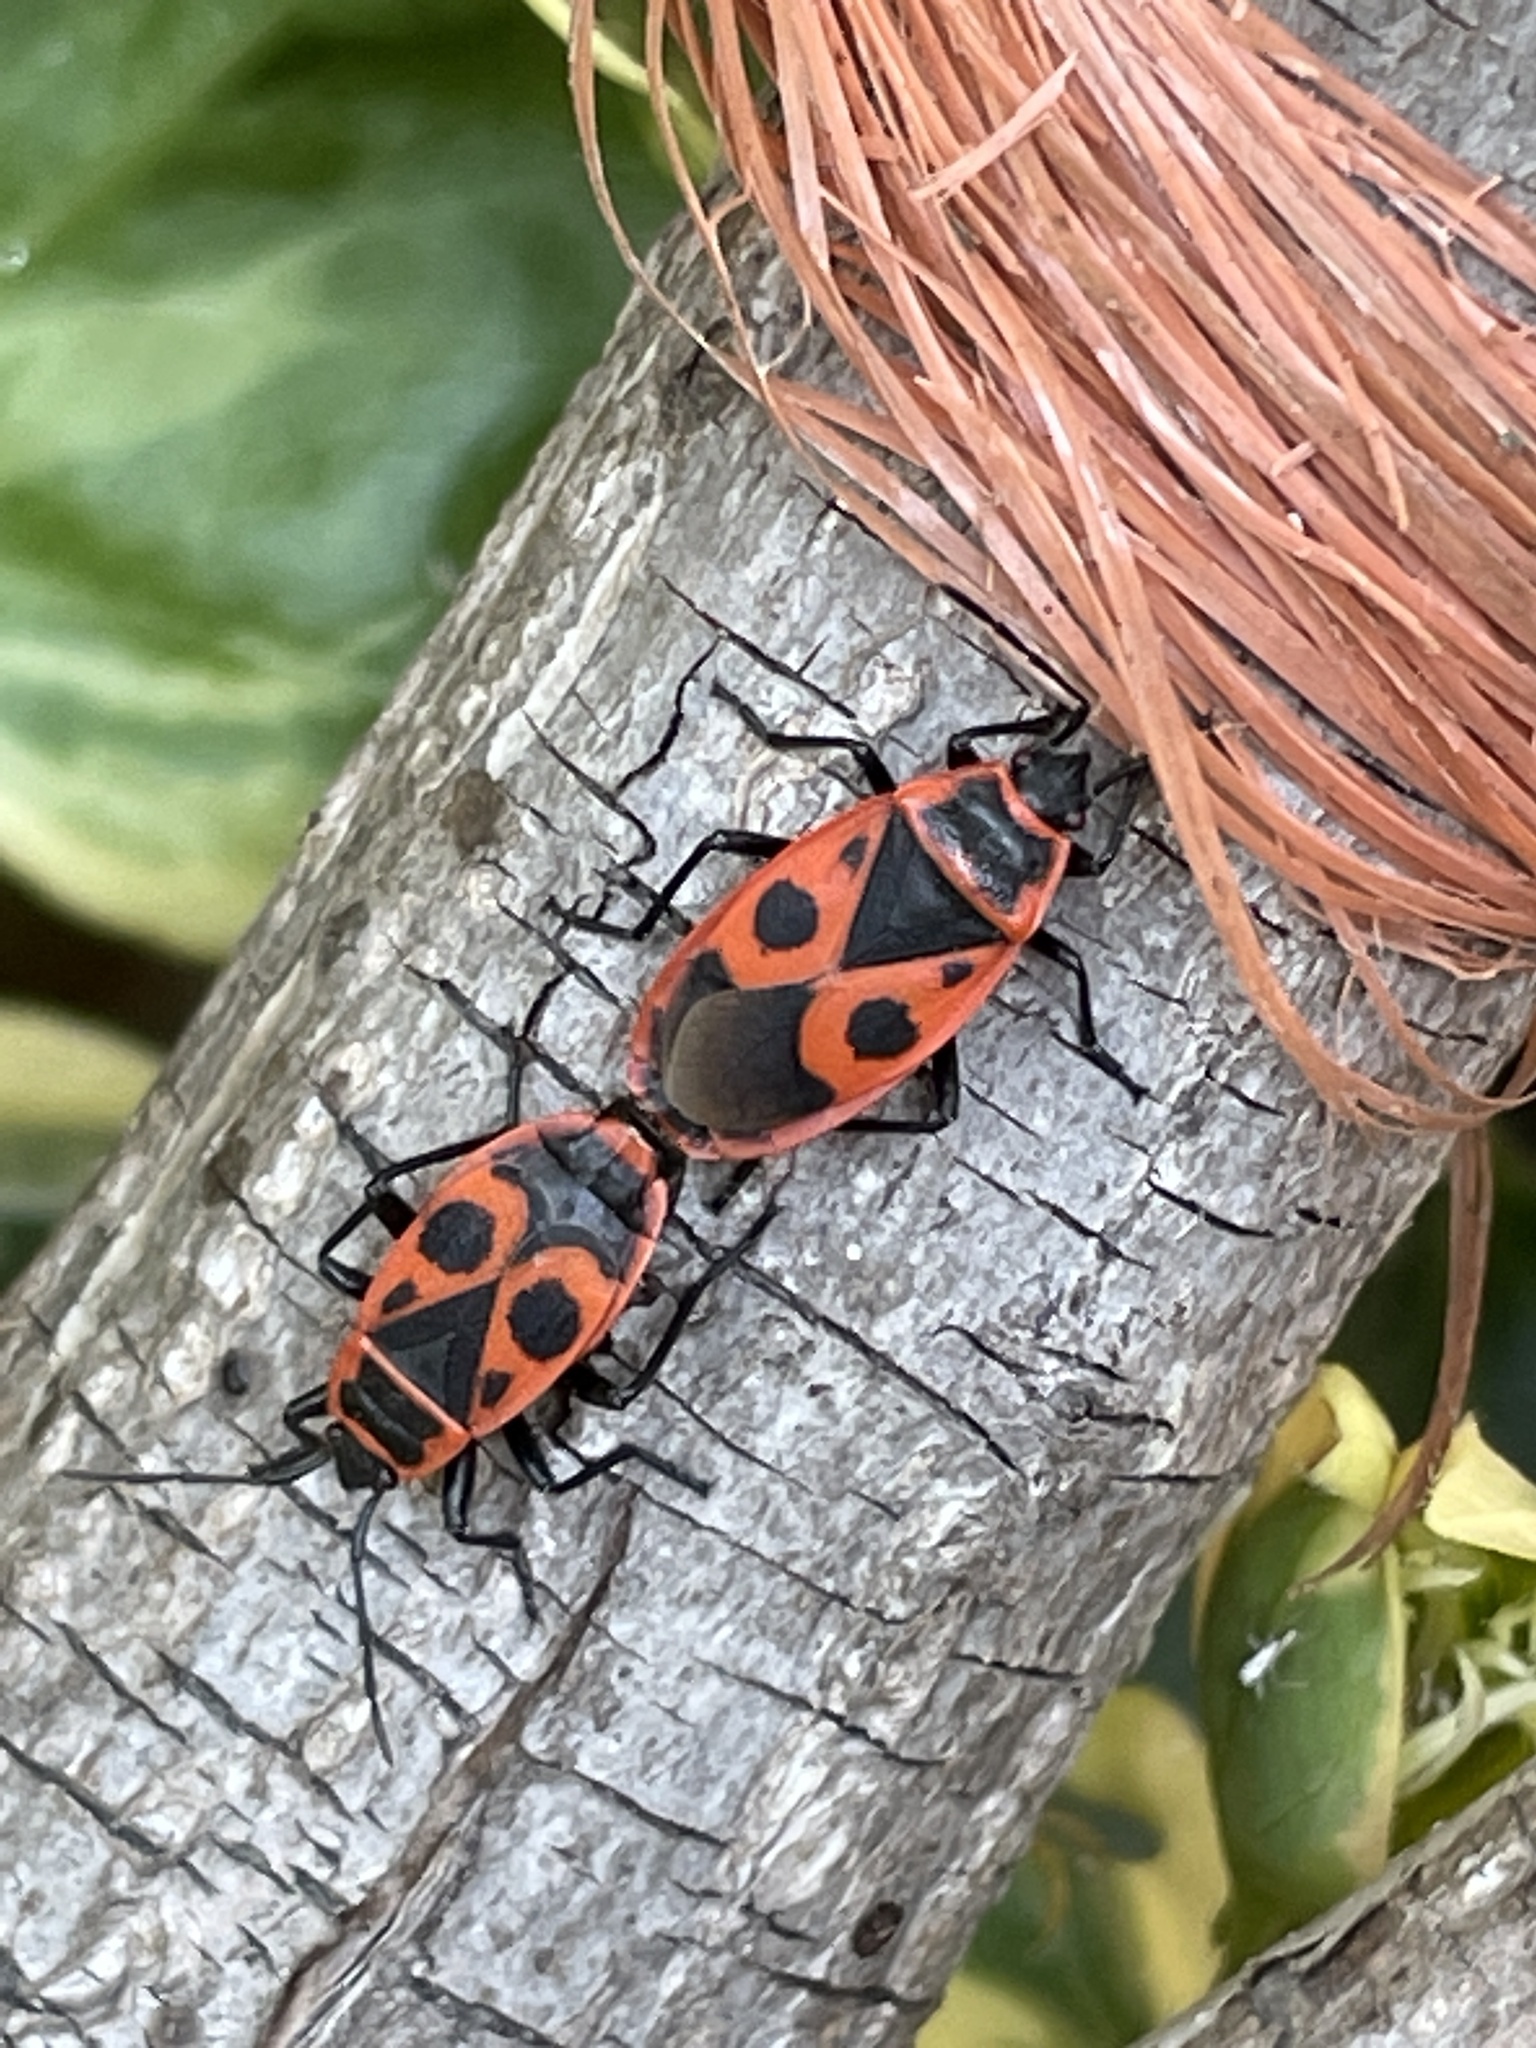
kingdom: Animalia
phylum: Arthropoda
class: Insecta
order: Hemiptera
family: Pyrrhocoridae
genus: Pyrrhocoris
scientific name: Pyrrhocoris apterus
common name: Firebug
